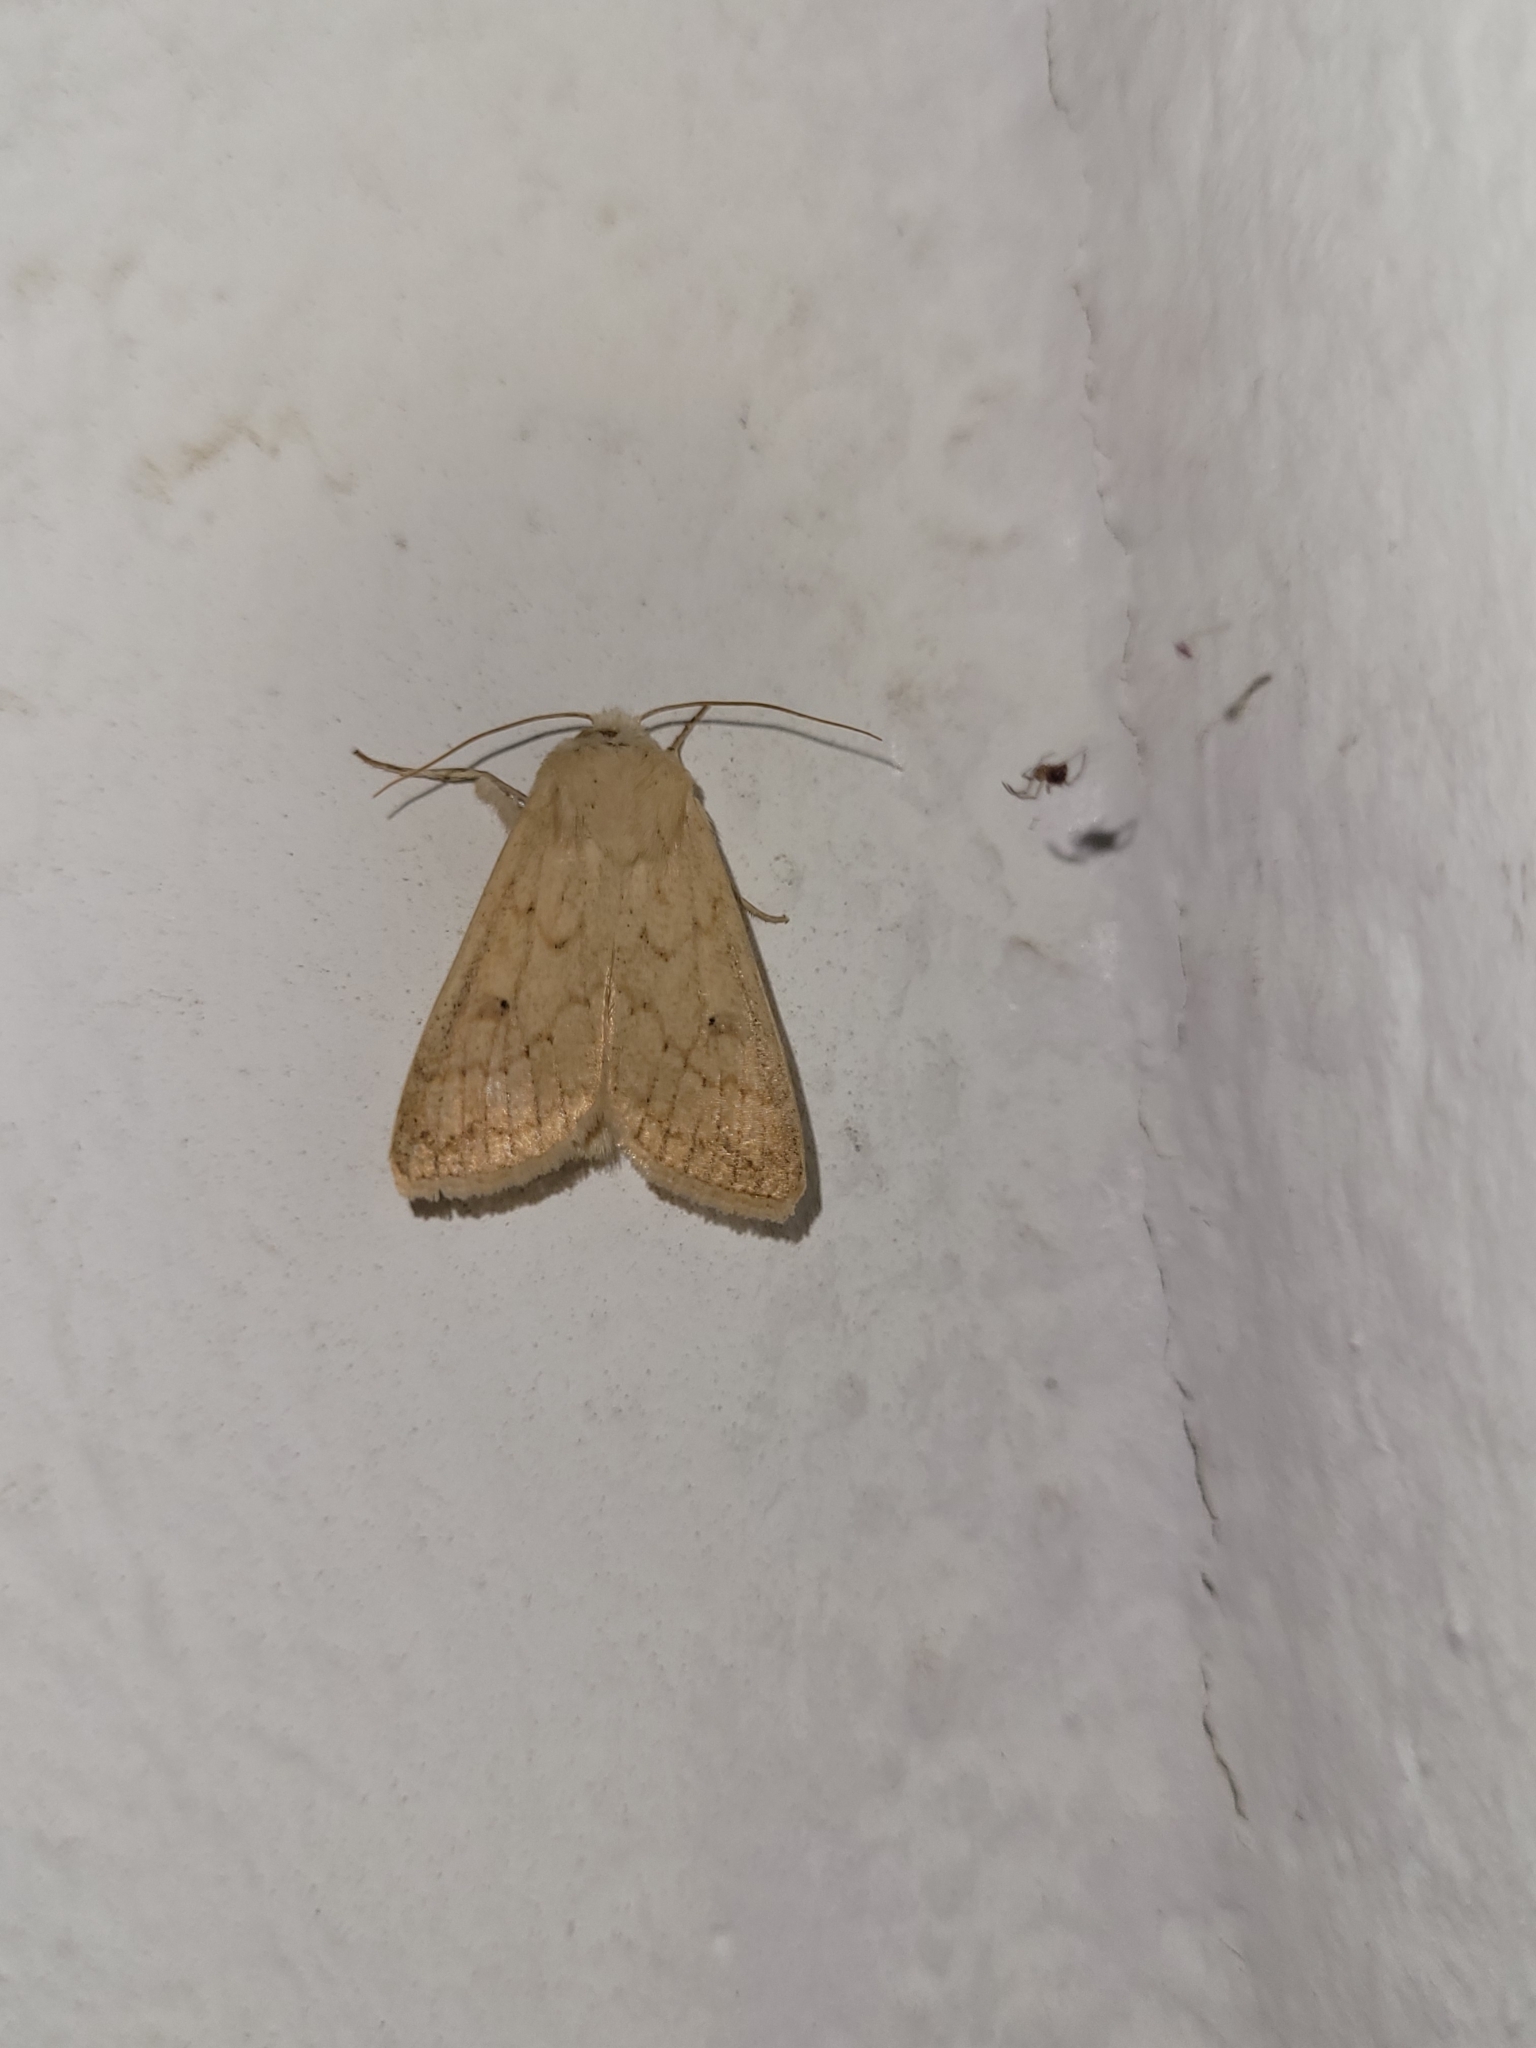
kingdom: Animalia
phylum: Arthropoda
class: Insecta
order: Lepidoptera
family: Noctuidae
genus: Mythimna
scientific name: Mythimna vitellina
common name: Delicate
